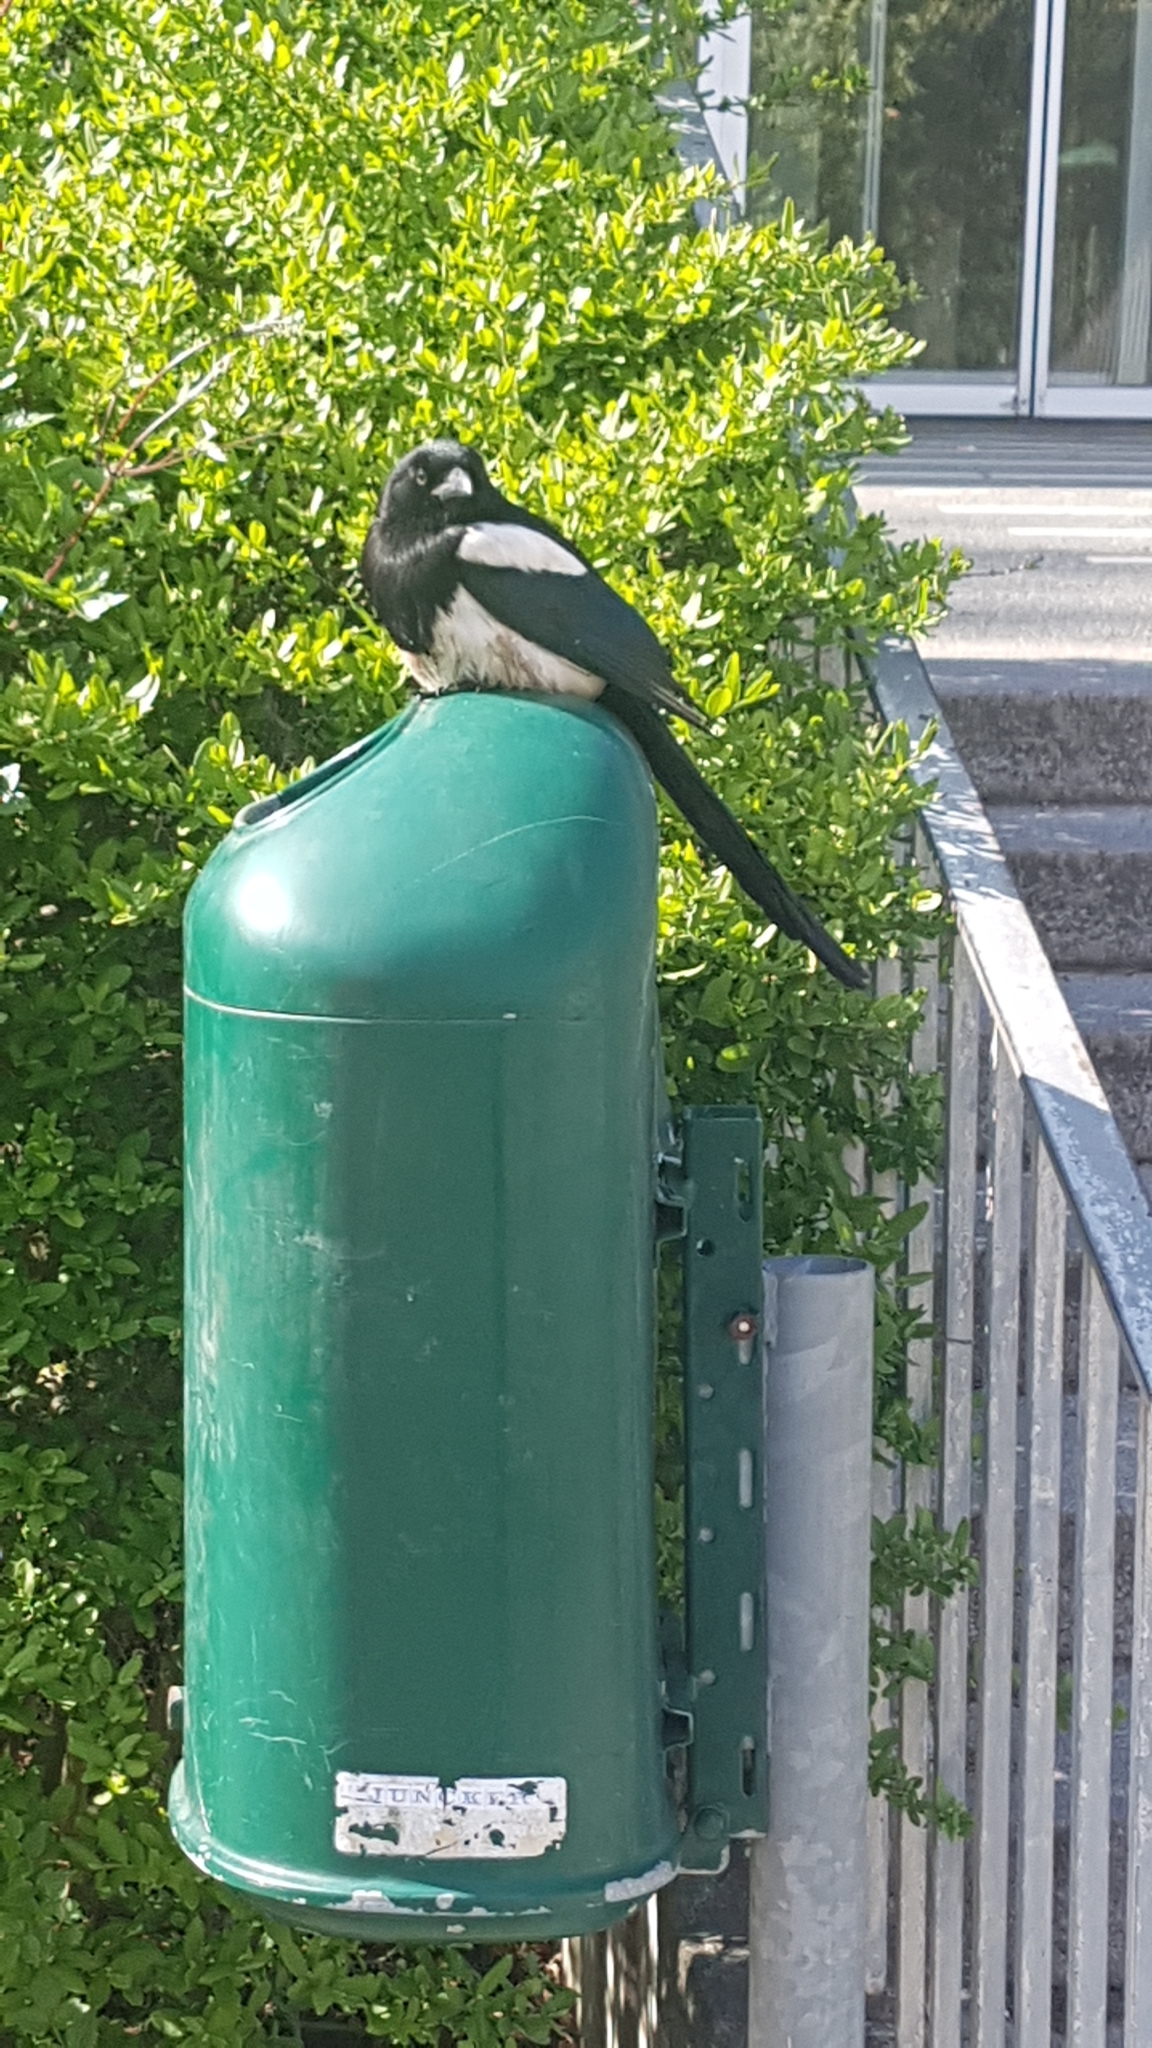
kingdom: Animalia
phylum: Chordata
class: Aves
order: Passeriformes
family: Corvidae
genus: Pica
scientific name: Pica pica
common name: Eurasian magpie
